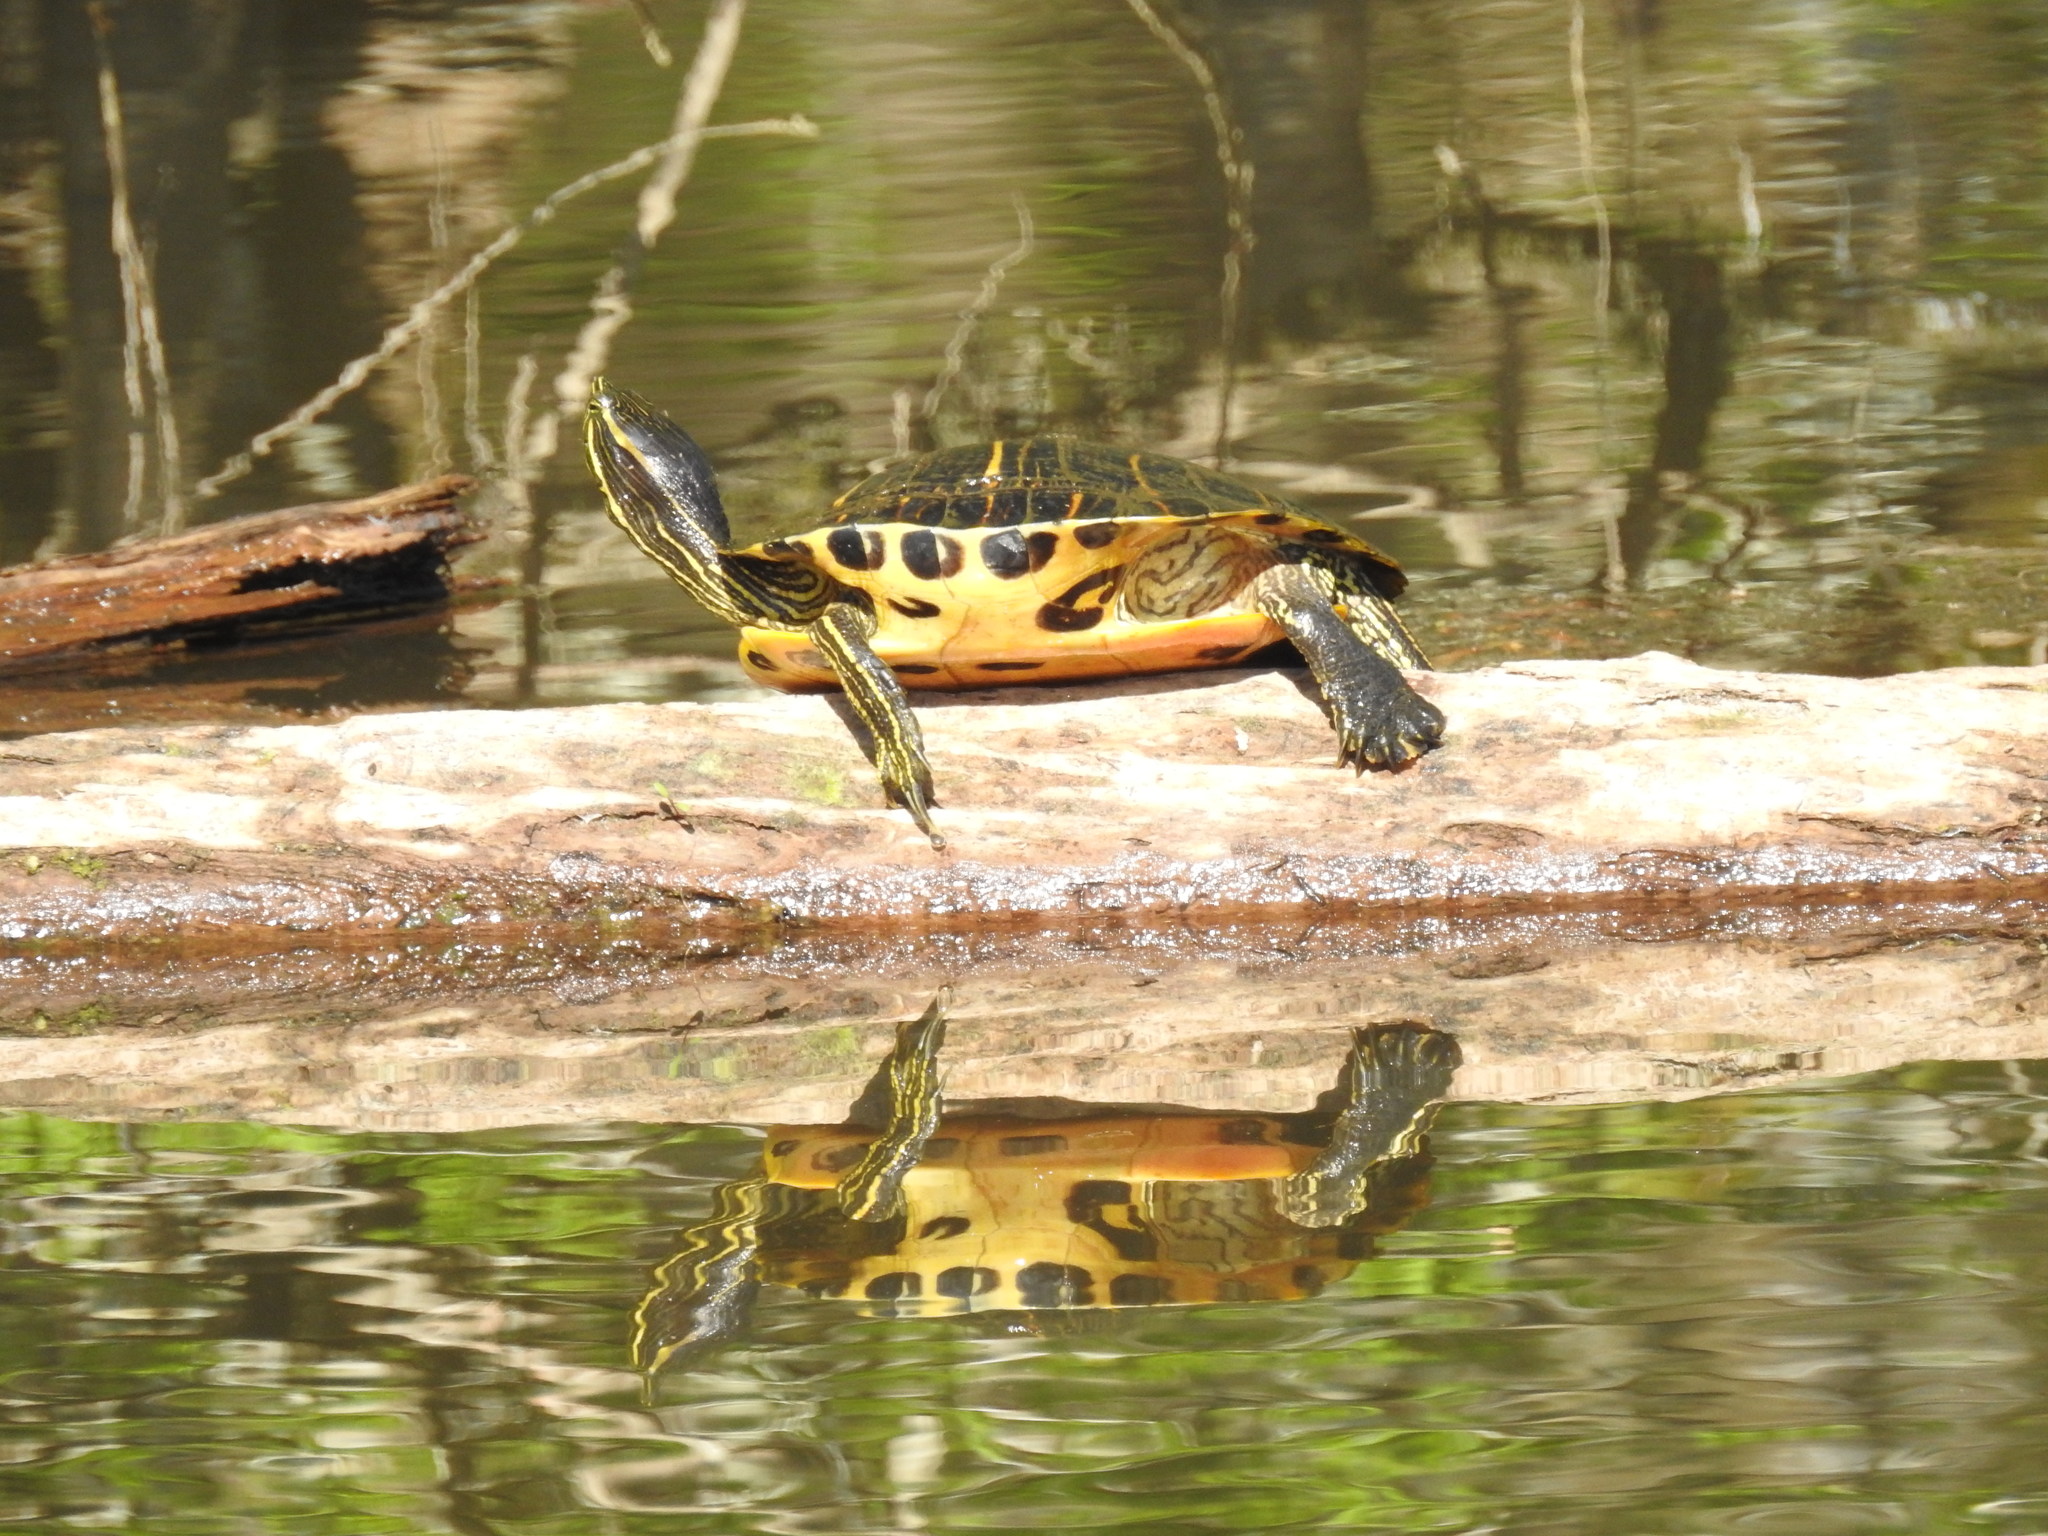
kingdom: Animalia
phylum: Chordata
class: Testudines
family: Emydidae
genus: Trachemys
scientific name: Trachemys scripta
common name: Slider
